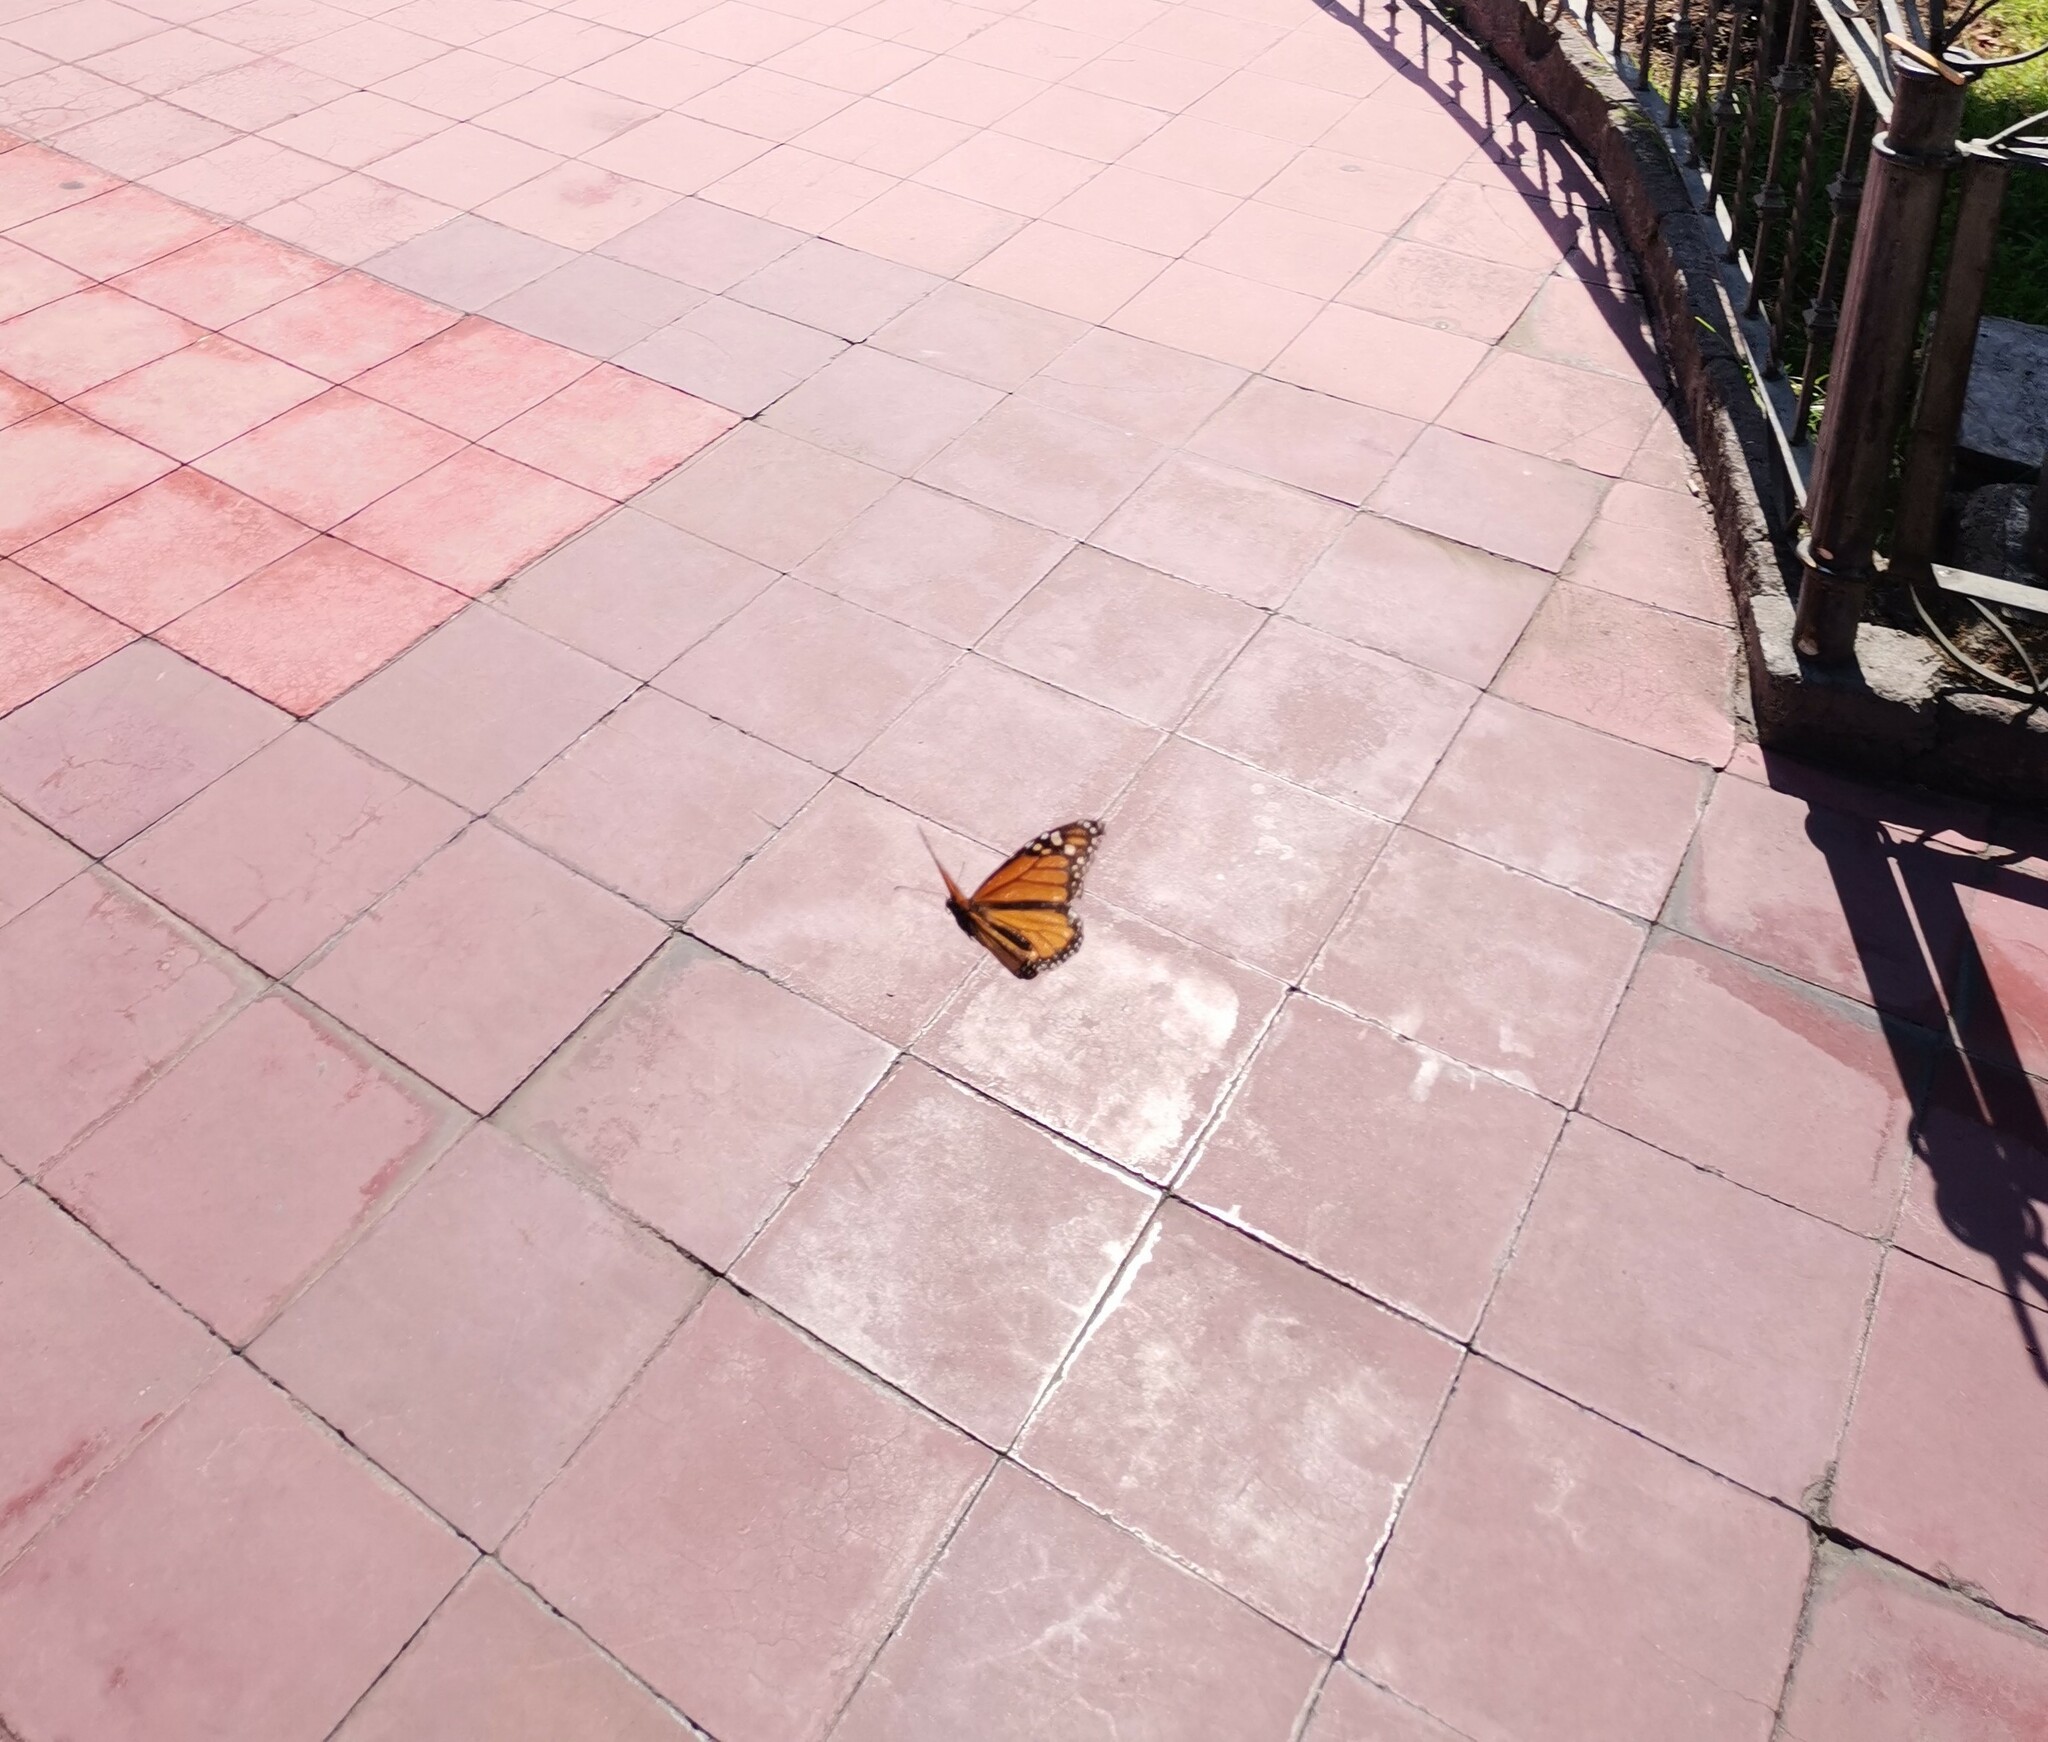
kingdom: Animalia
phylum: Arthropoda
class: Insecta
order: Lepidoptera
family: Nymphalidae
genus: Danaus
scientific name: Danaus plexippus
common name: Monarch
